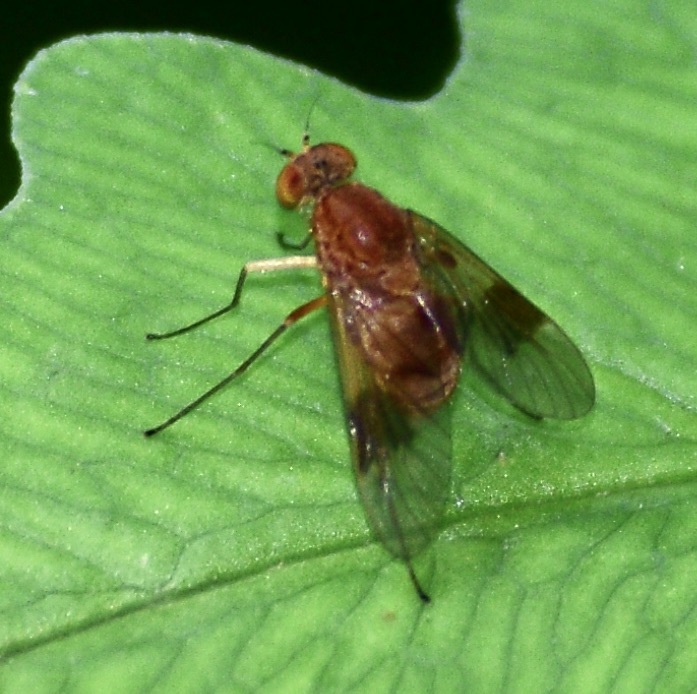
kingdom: Animalia
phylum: Arthropoda
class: Insecta
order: Diptera
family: Rhagionidae
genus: Chrysopilus
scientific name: Chrysopilus quadratus
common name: Quadrate snipe fly
